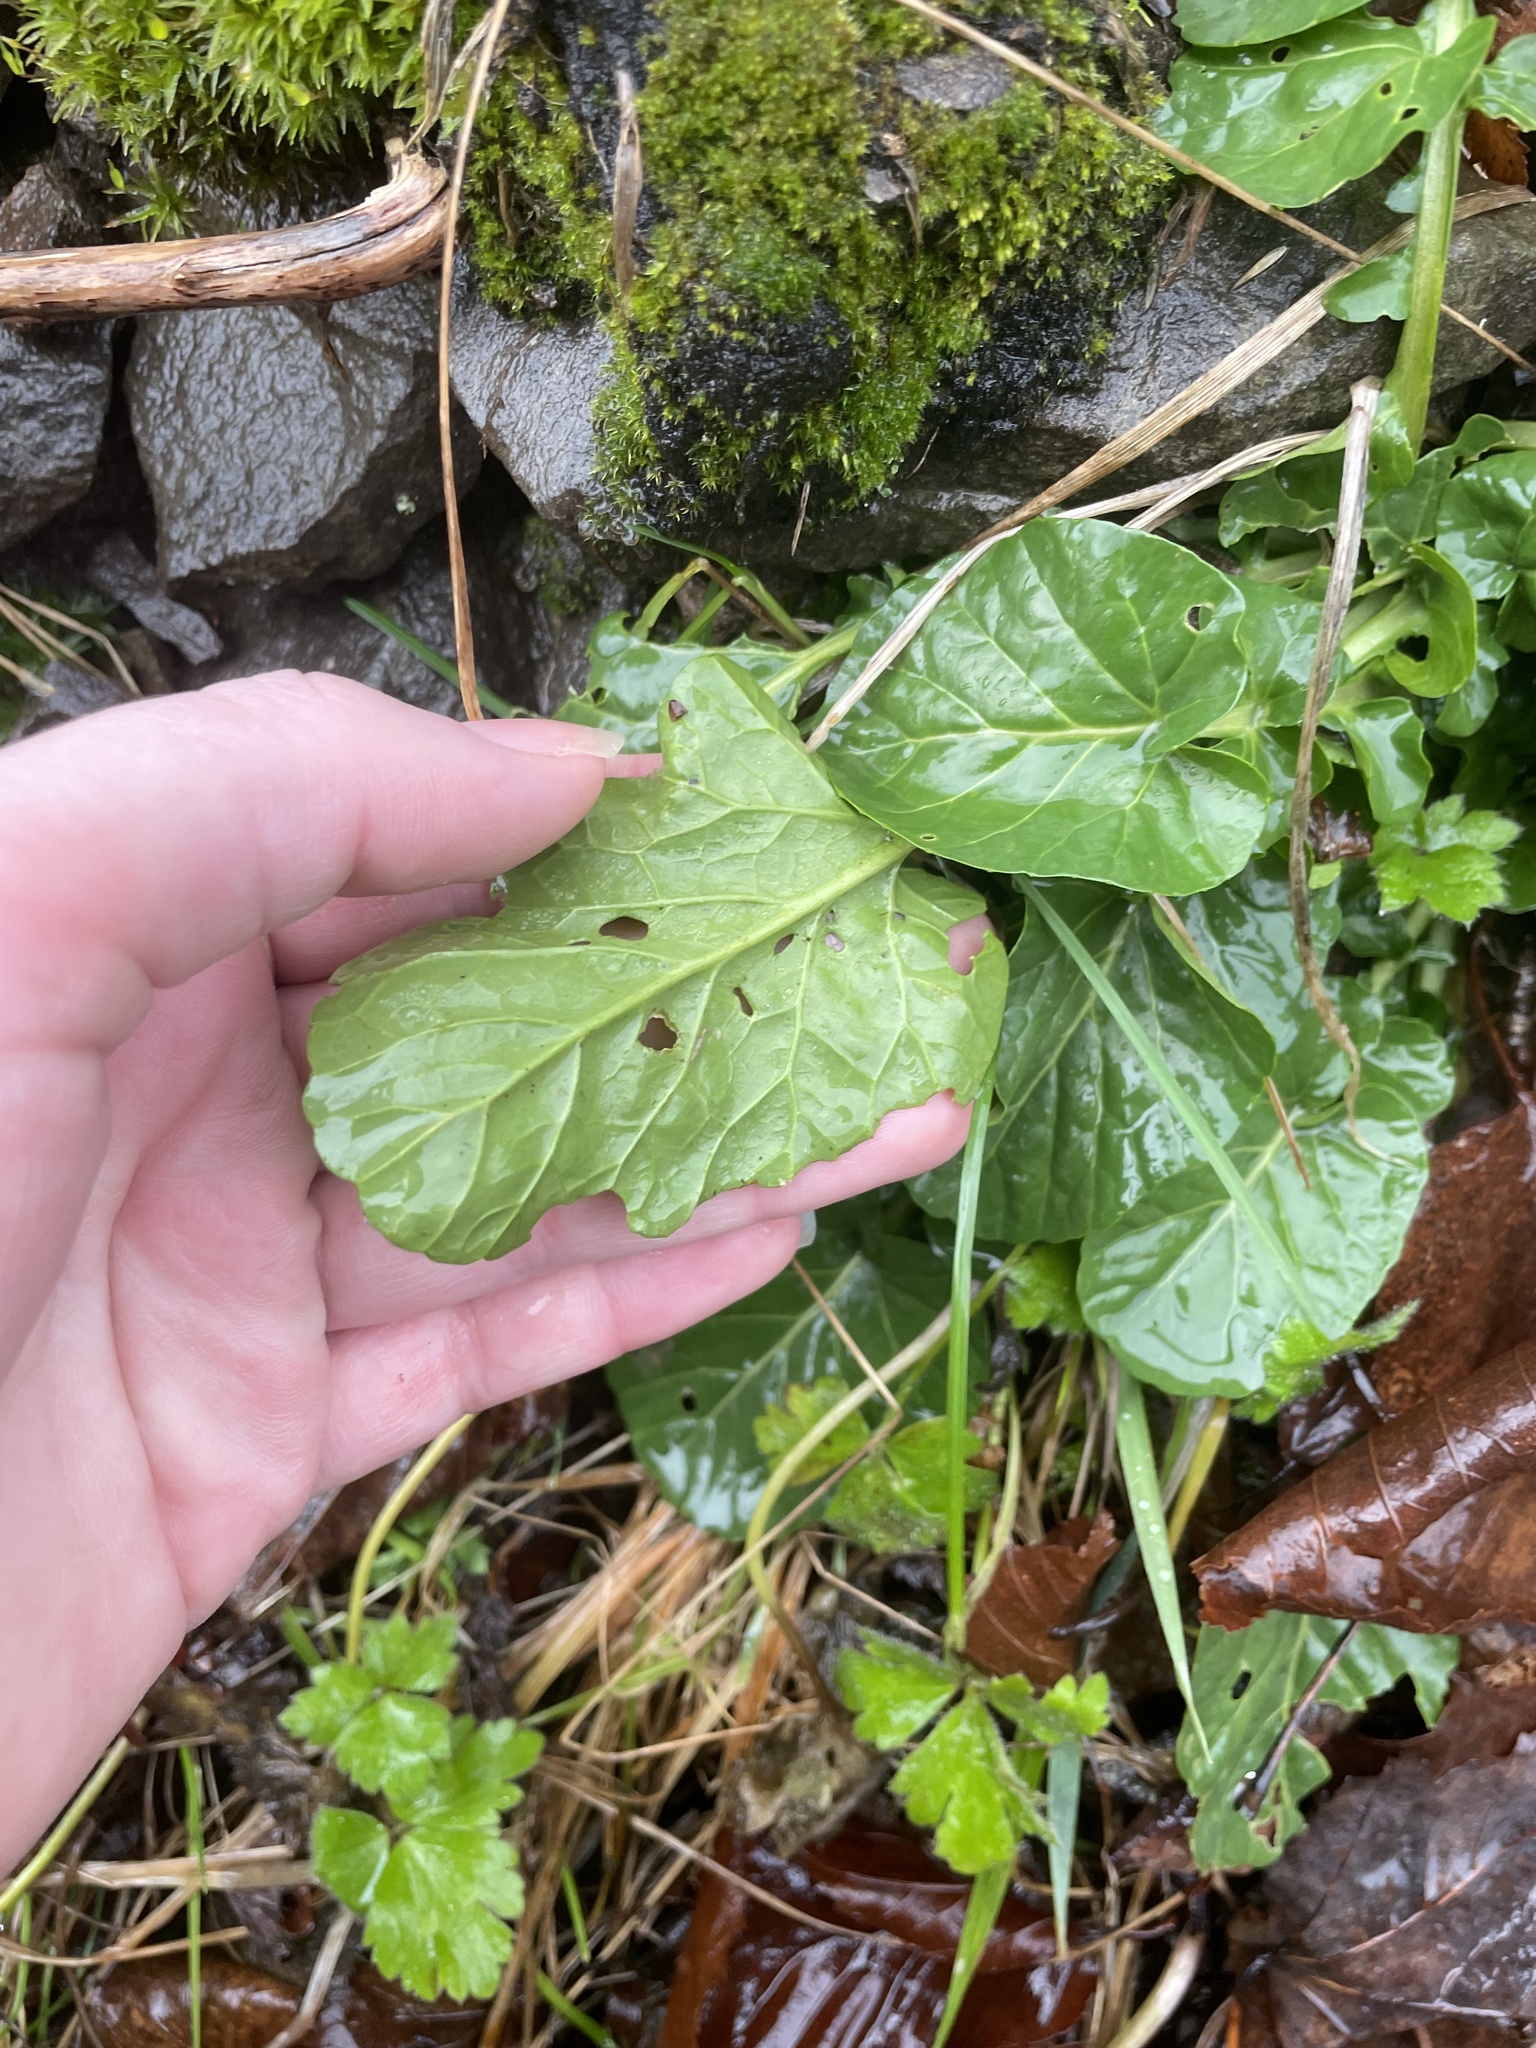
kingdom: Plantae
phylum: Tracheophyta
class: Magnoliopsida
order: Brassicales
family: Brassicaceae
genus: Barbarea
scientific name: Barbarea vulgaris
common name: Cressy-greens
